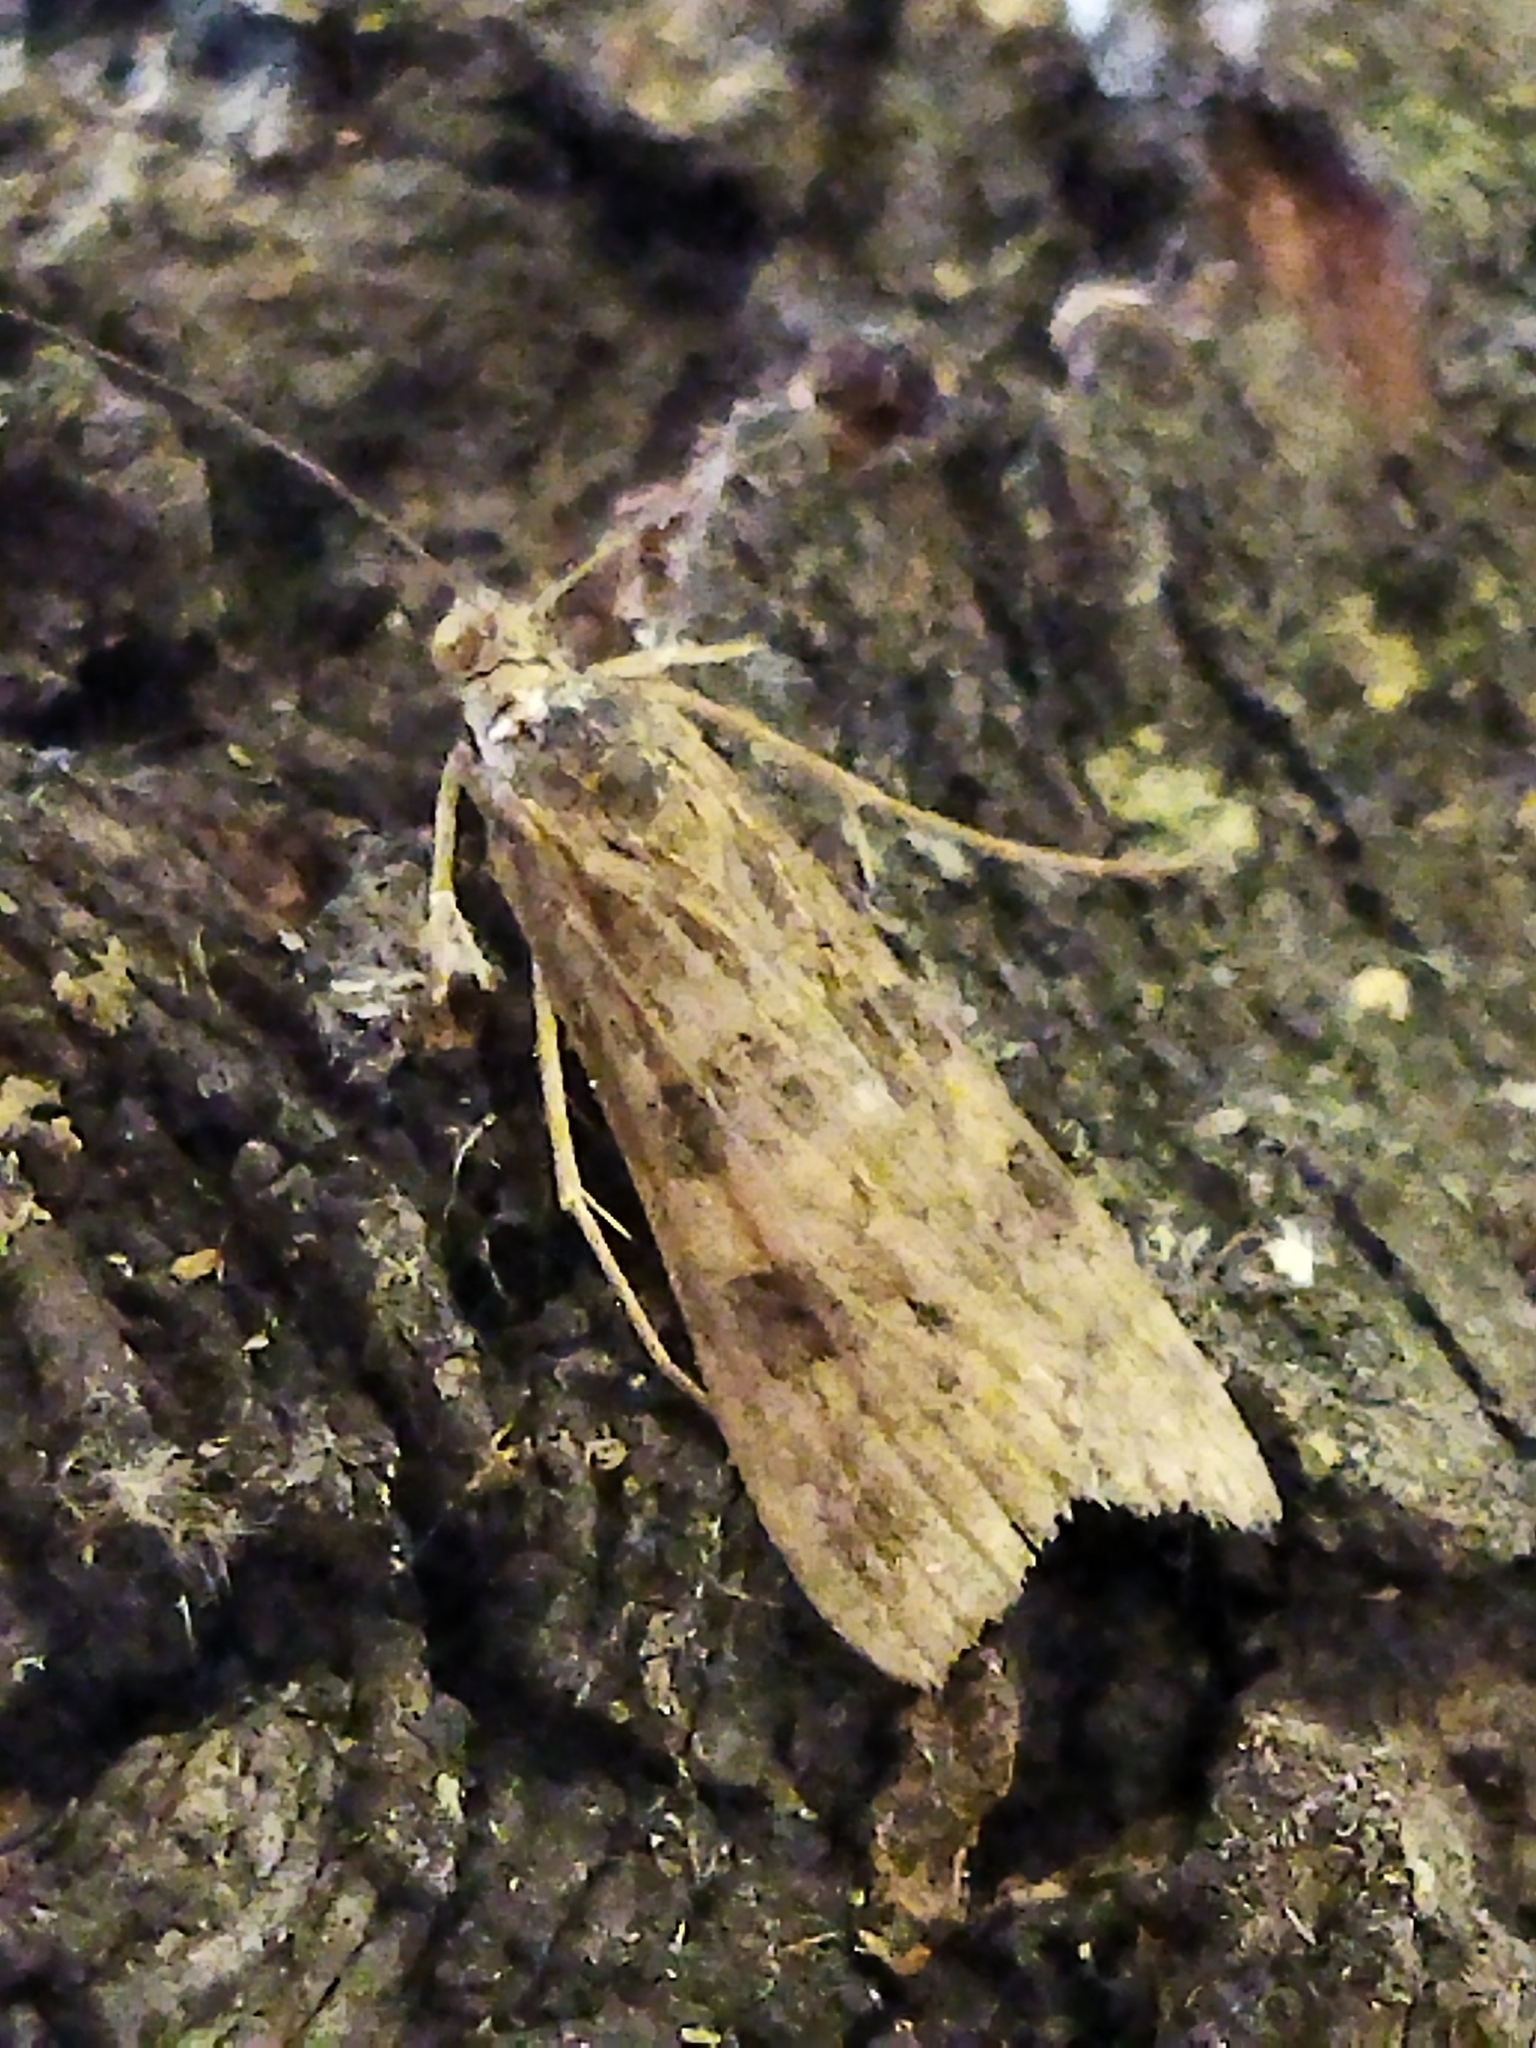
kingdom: Animalia
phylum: Arthropoda
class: Insecta
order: Lepidoptera
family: Crambidae
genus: Nomophila
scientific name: Nomophila noctuella
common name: Rush veneer
